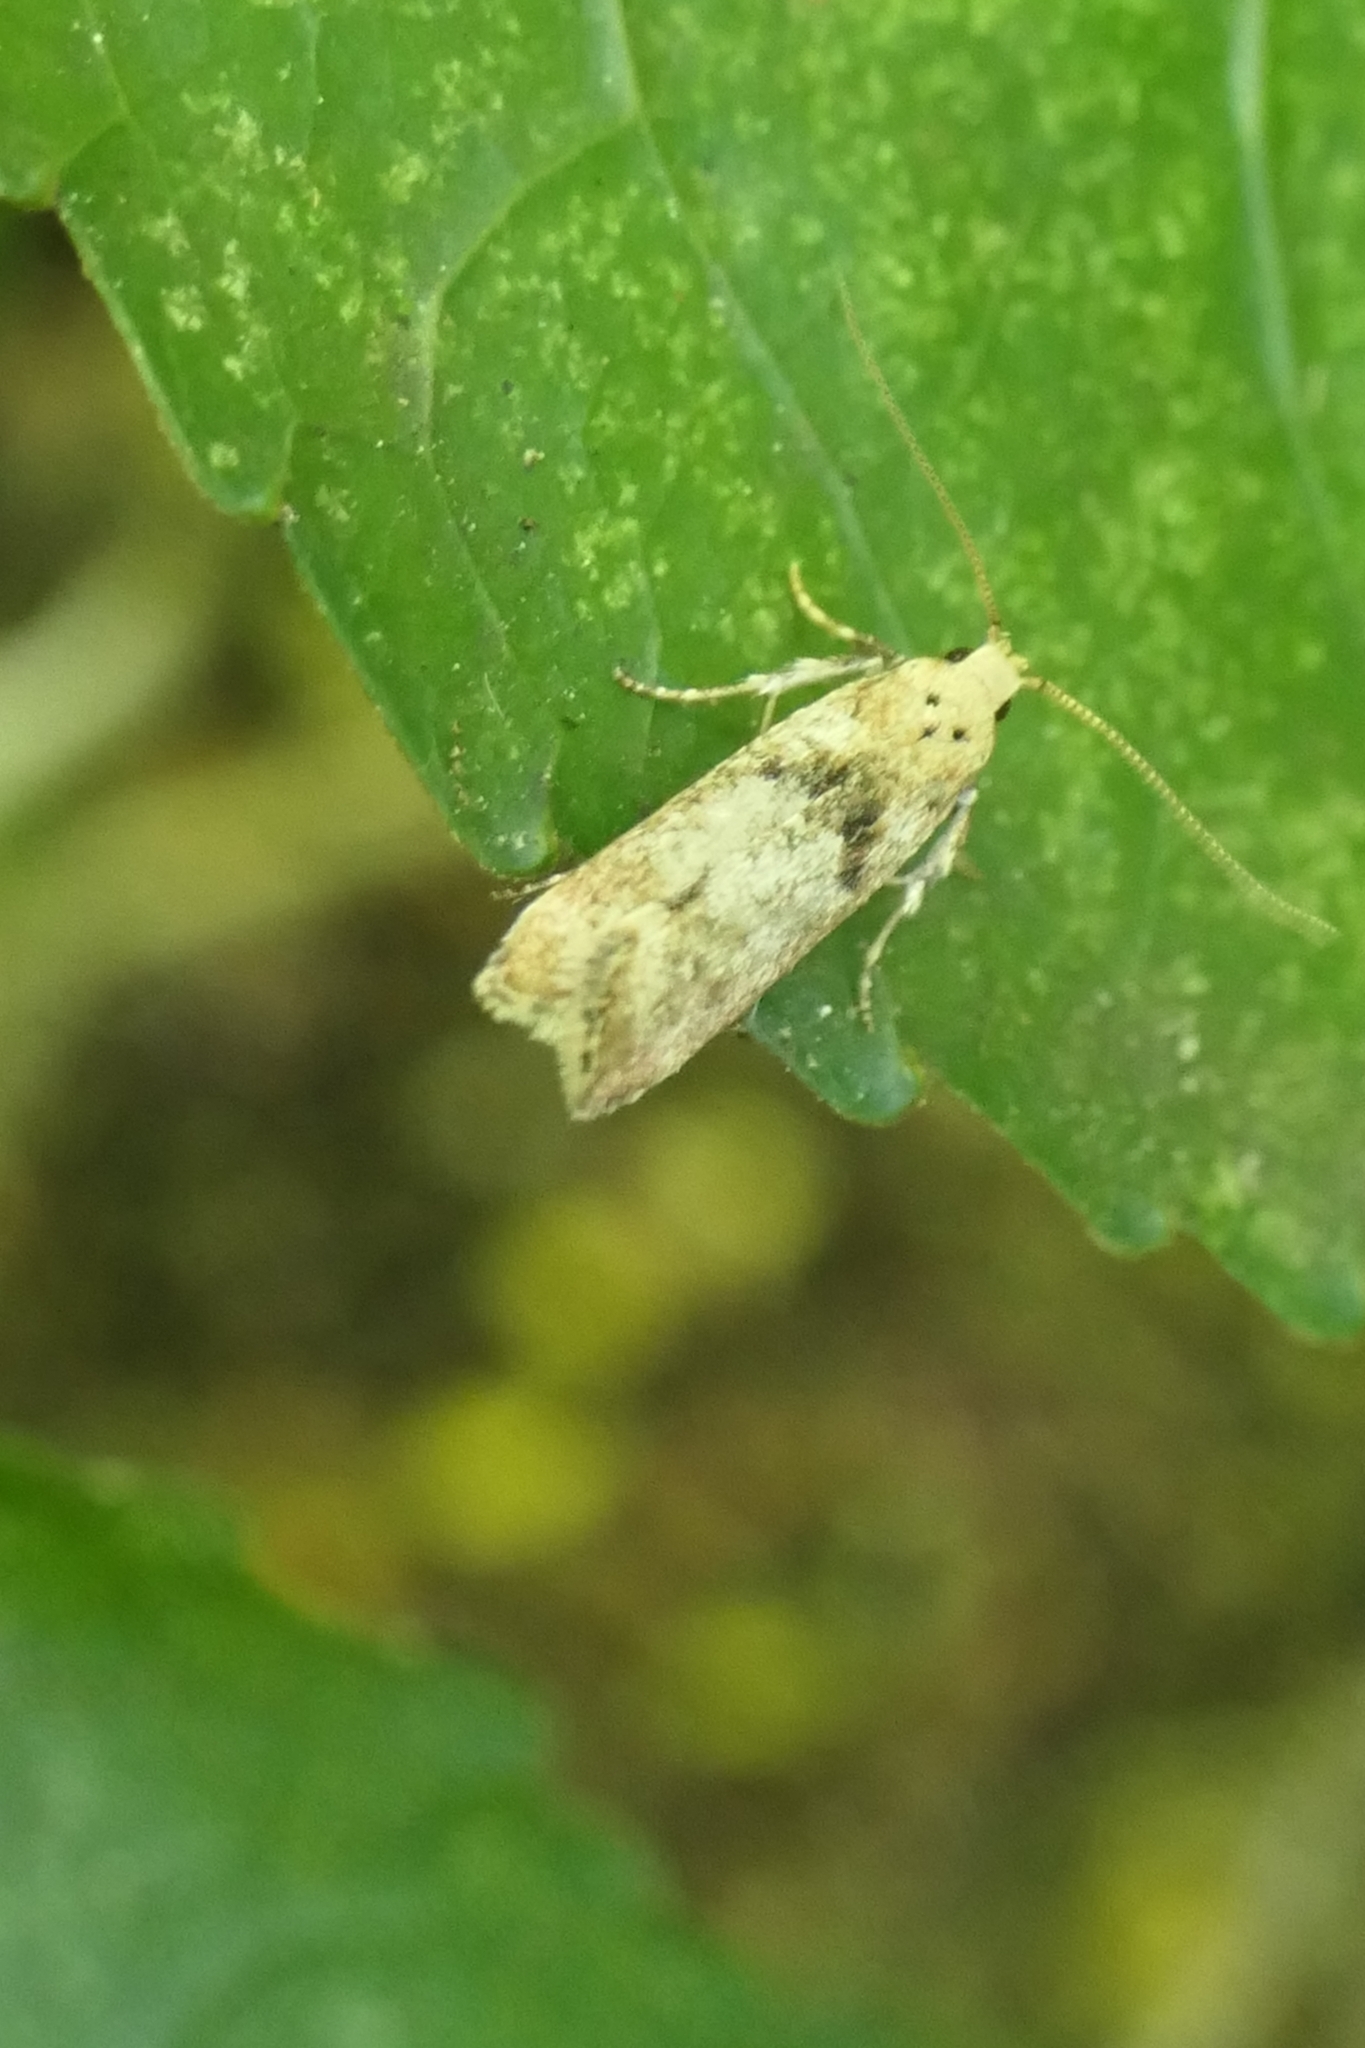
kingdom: Animalia
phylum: Arthropoda
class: Insecta
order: Lepidoptera
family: Gelechiidae
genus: Anisoplaca
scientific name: Anisoplaca acrodactyla
